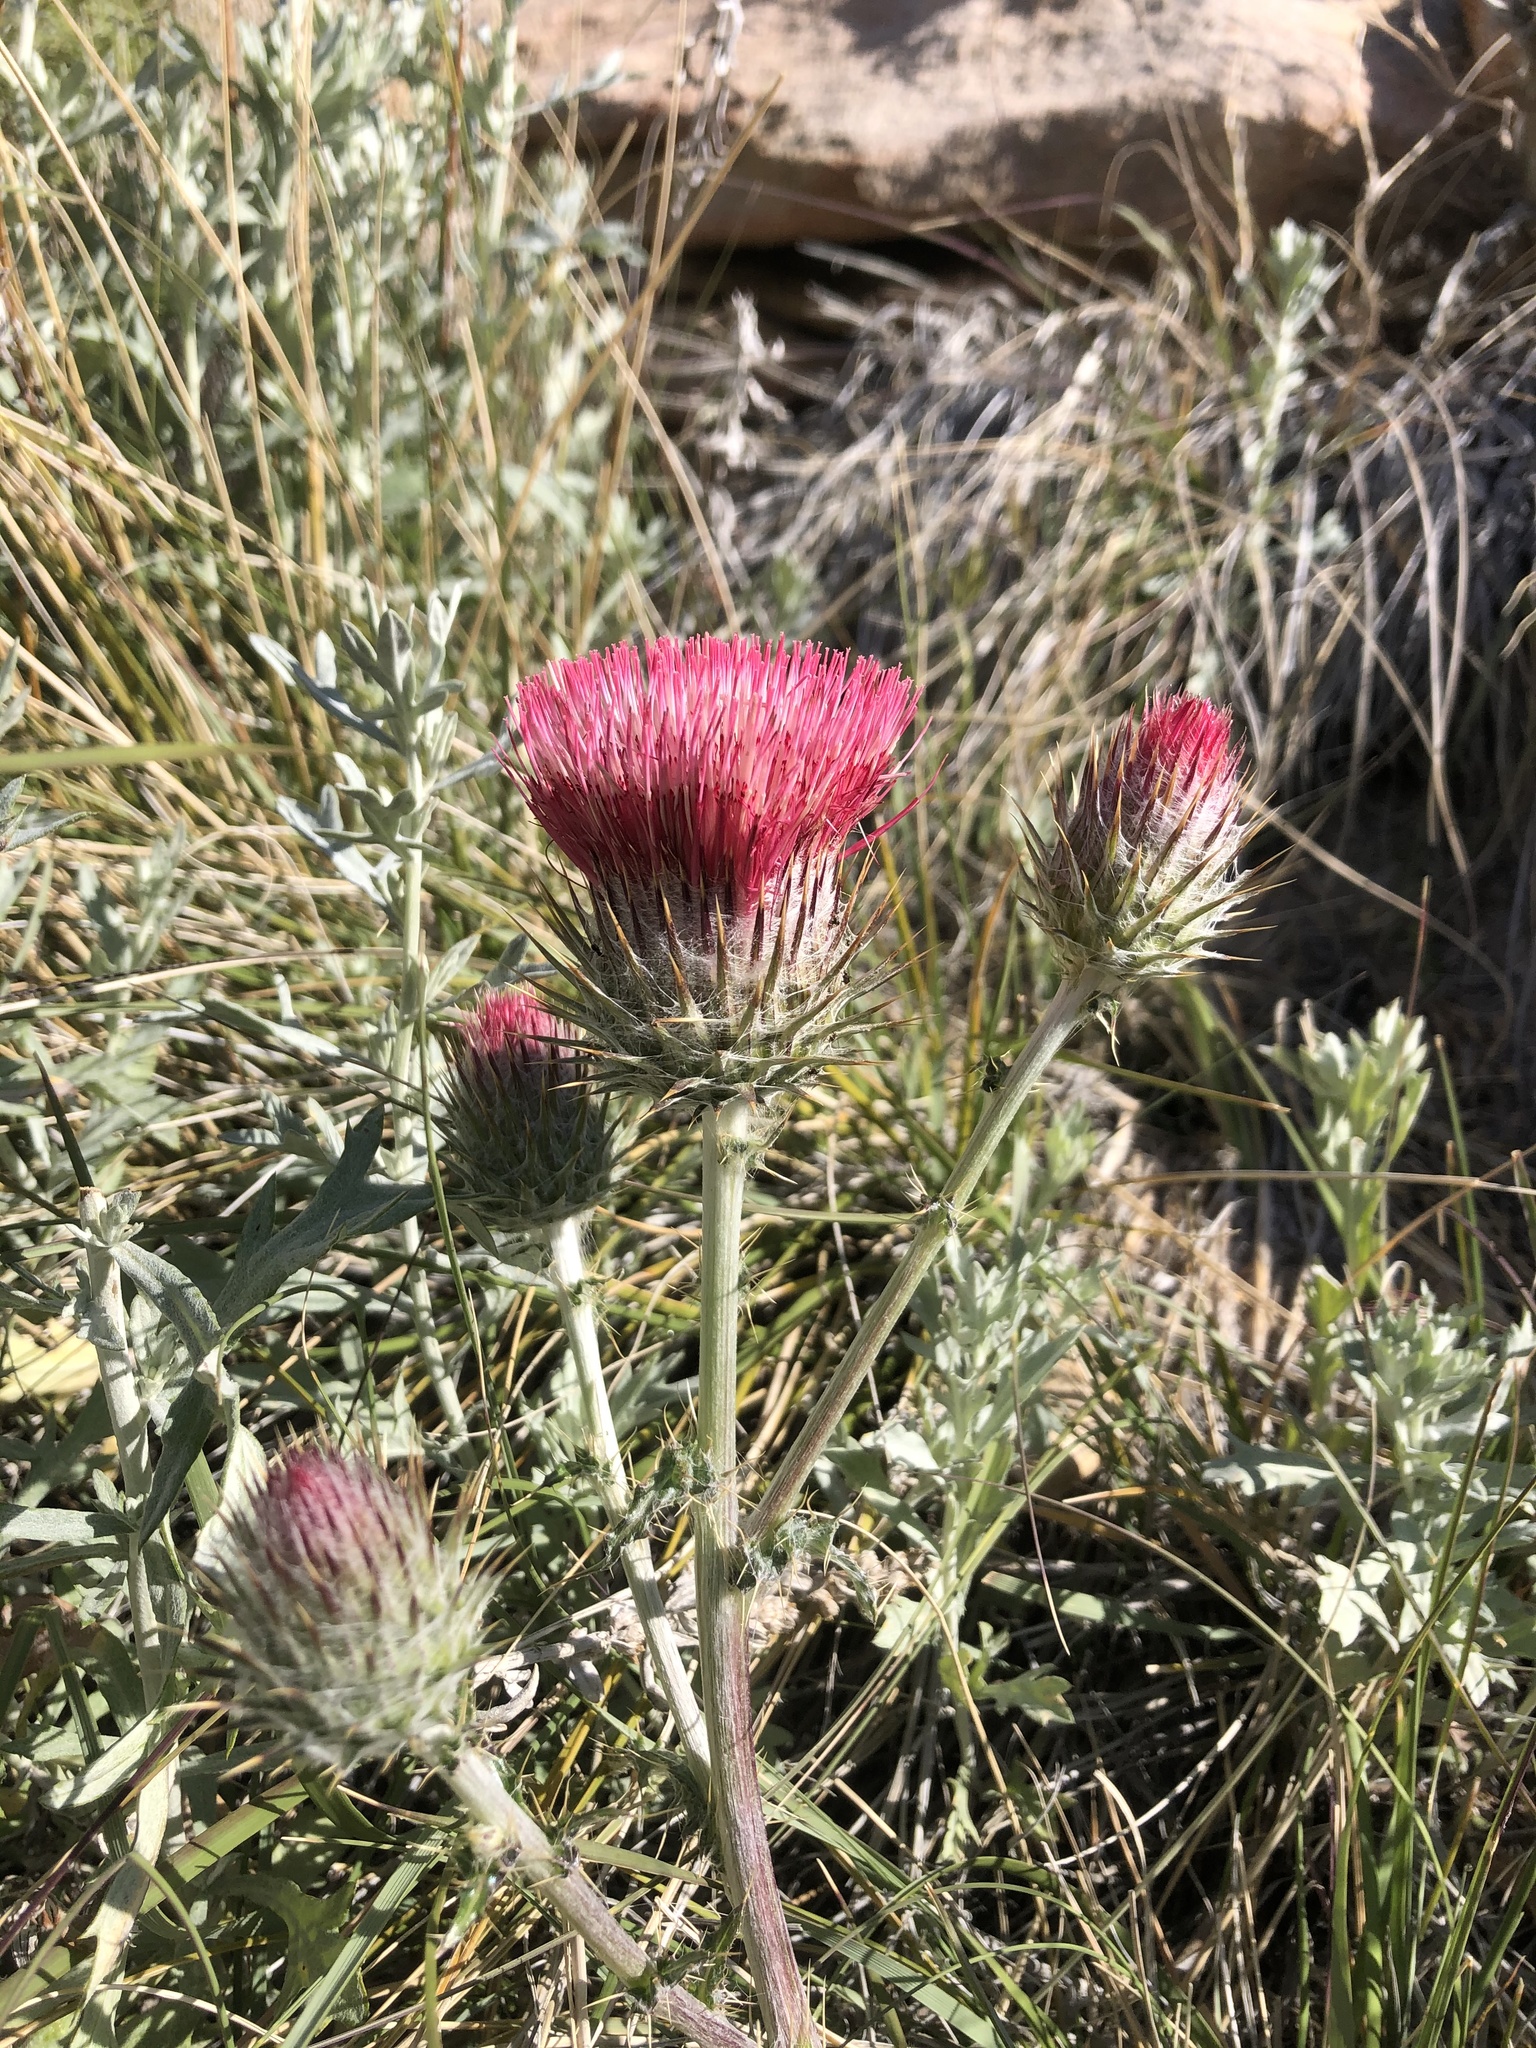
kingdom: Plantae
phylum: Tracheophyta
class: Magnoliopsida
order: Asterales
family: Asteraceae
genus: Cirsium
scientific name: Cirsium occidentale
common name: Western thistle
